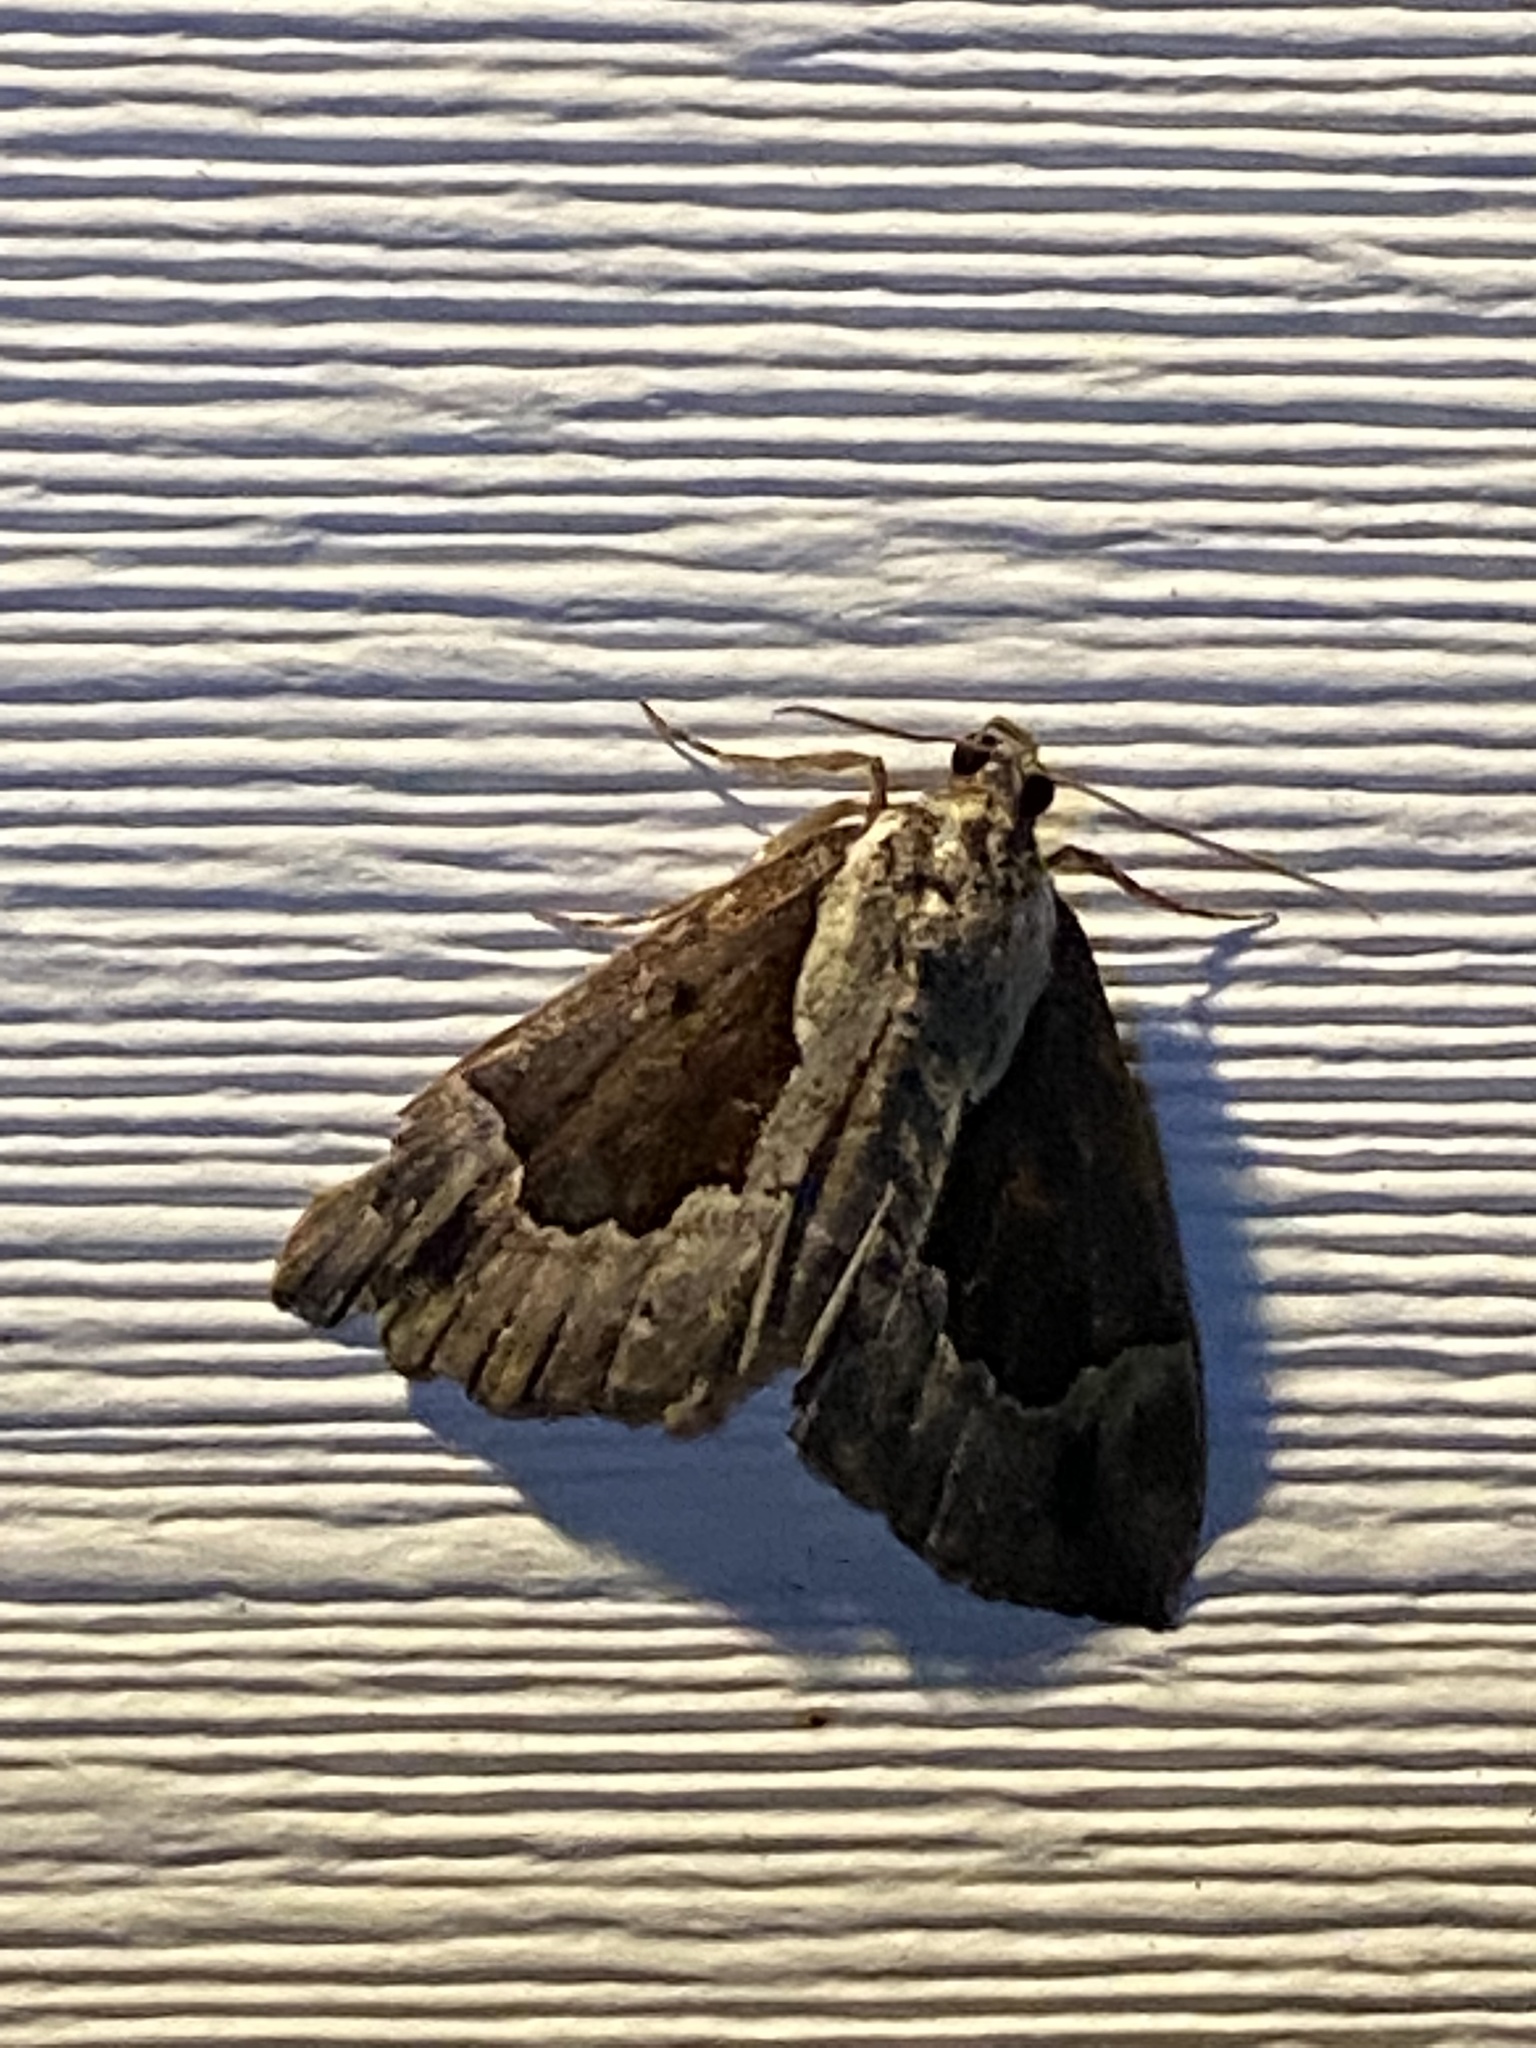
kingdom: Animalia
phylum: Arthropoda
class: Insecta
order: Lepidoptera
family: Erebidae
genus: Hypena
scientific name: Hypena baltimoralis
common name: Baltimore snout
